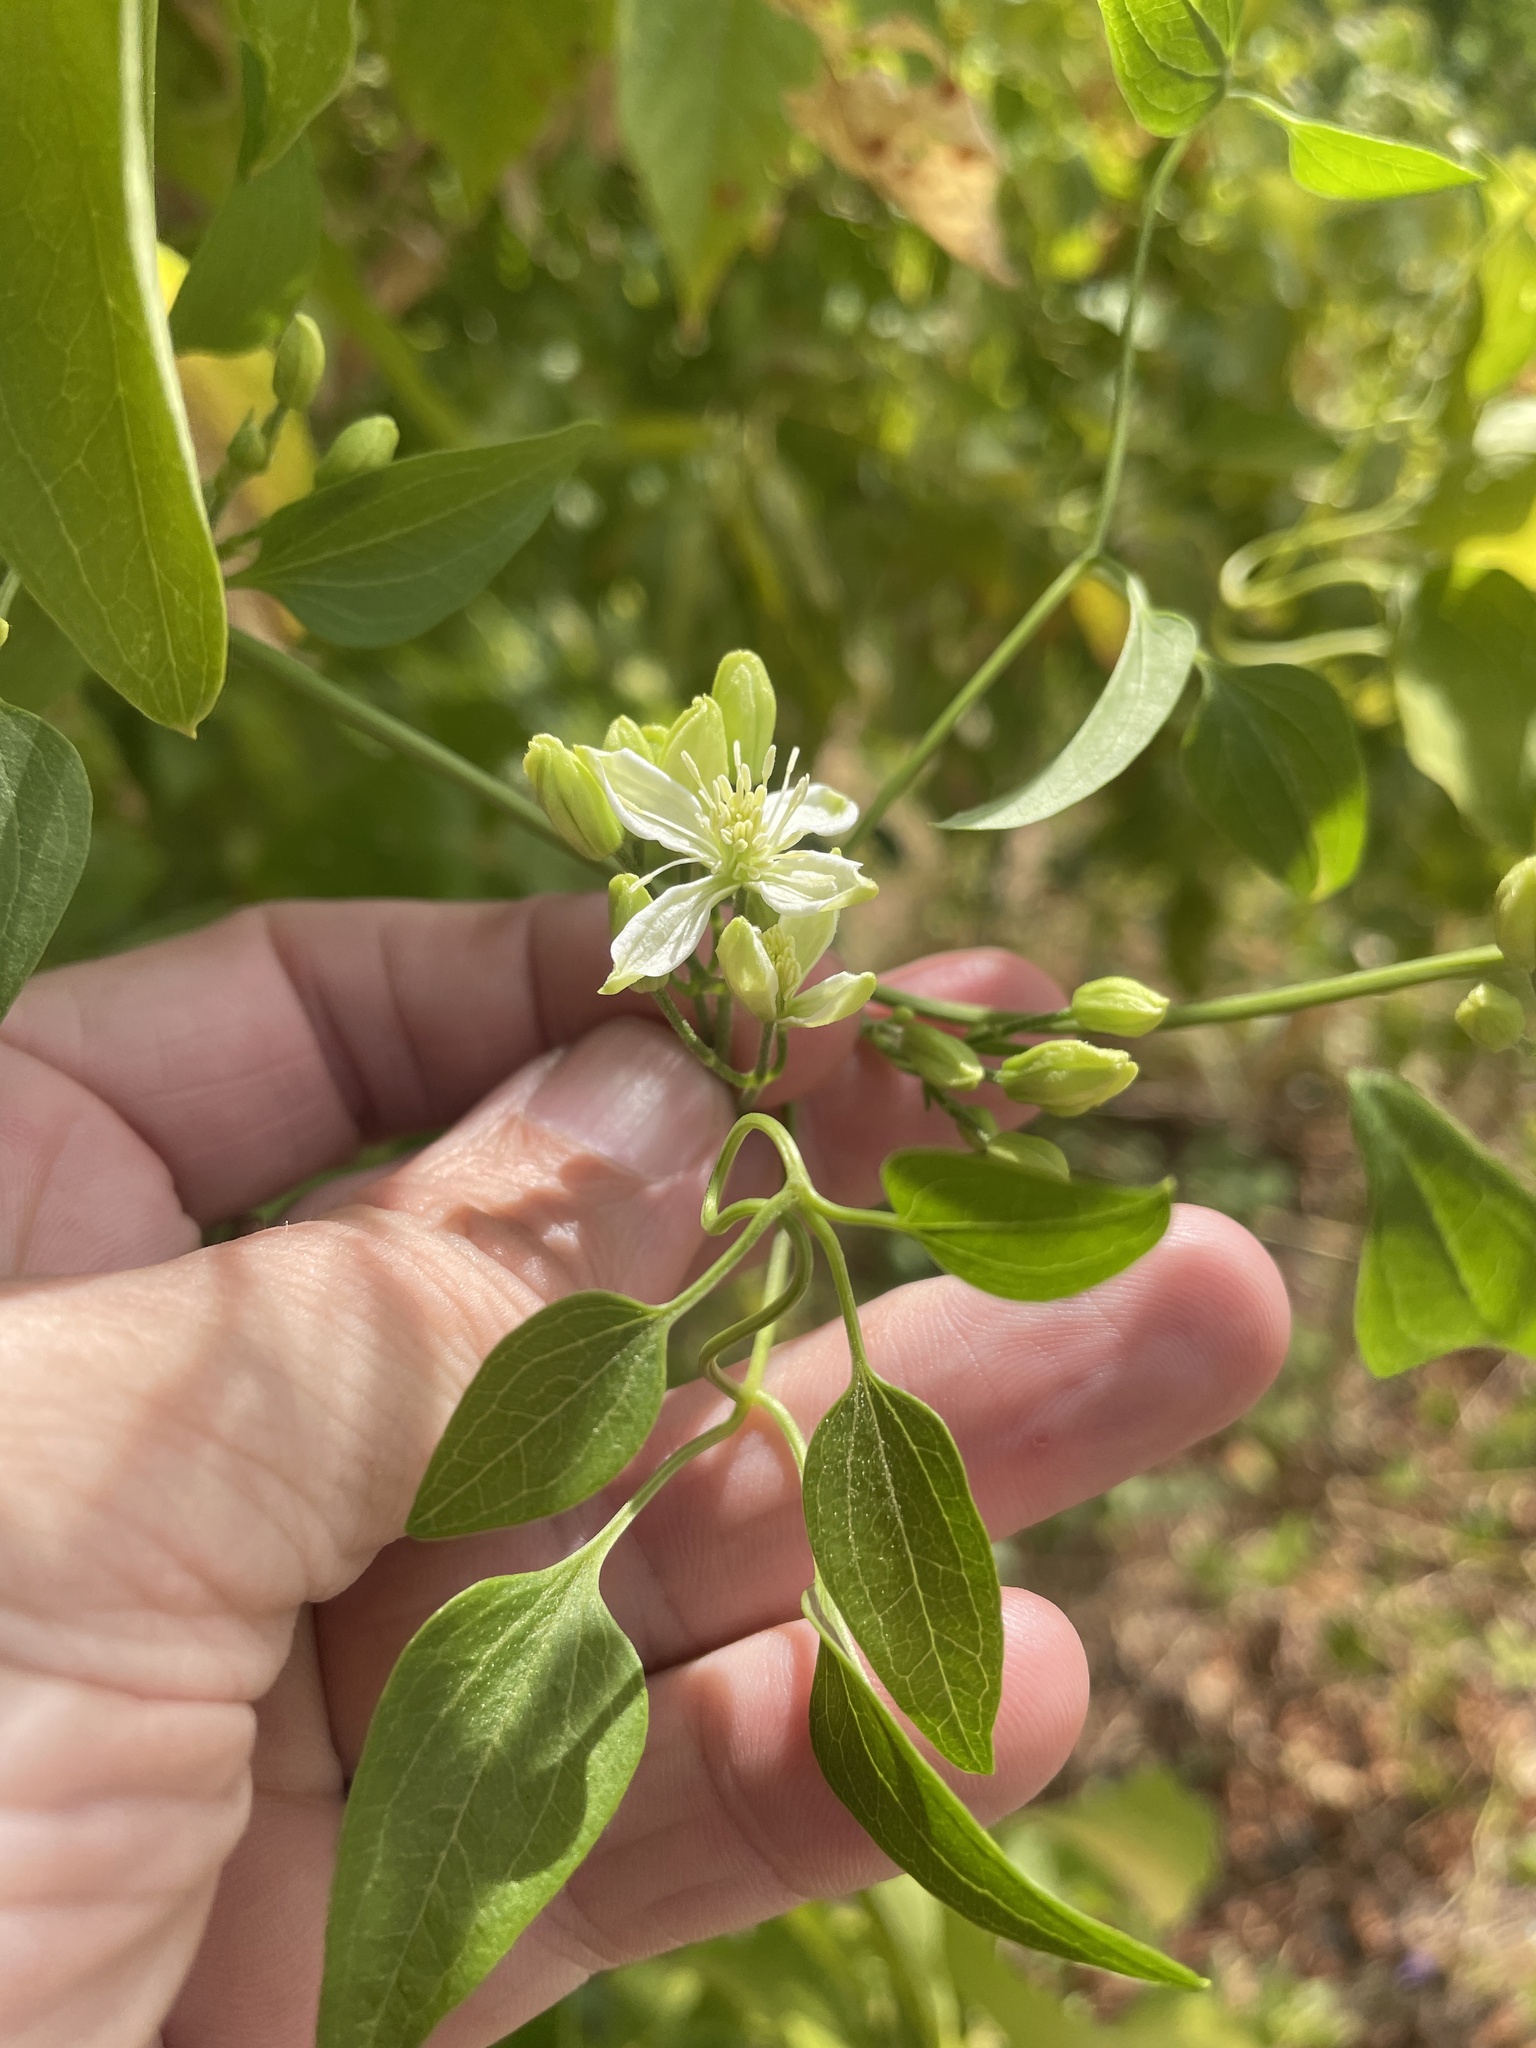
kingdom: Plantae
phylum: Tracheophyta
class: Magnoliopsida
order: Ranunculales
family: Ranunculaceae
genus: Clematis
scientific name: Clematis terniflora
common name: Sweet autumn clematis
